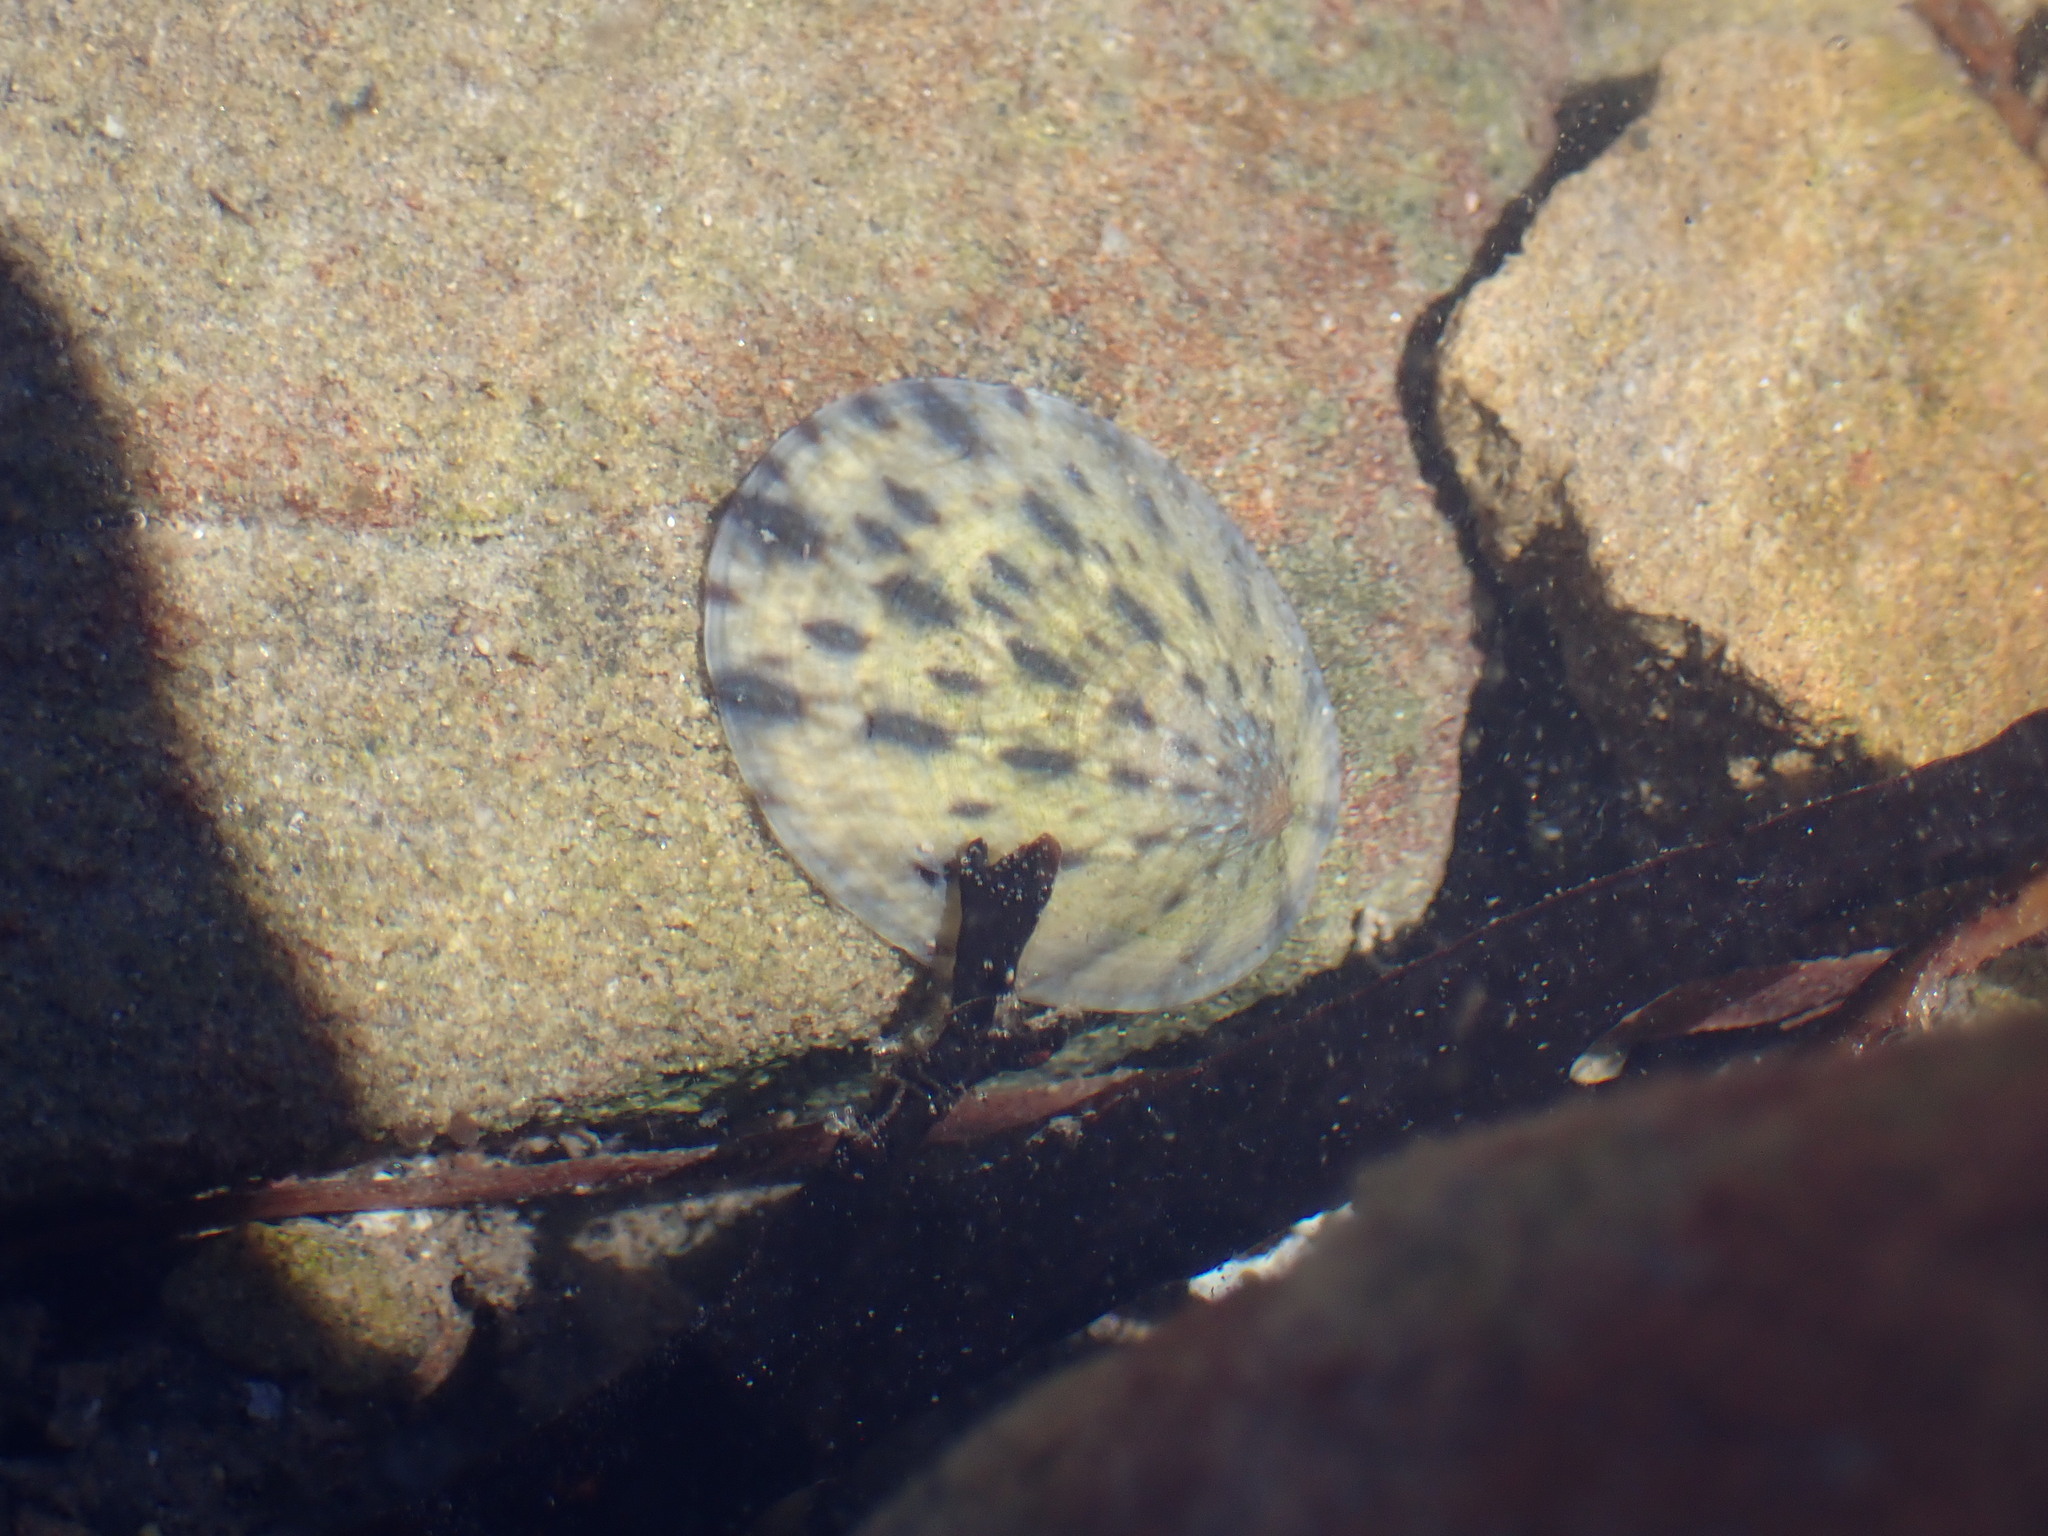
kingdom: Animalia
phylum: Mollusca
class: Gastropoda
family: Nacellidae
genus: Cellana
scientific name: Cellana radians
